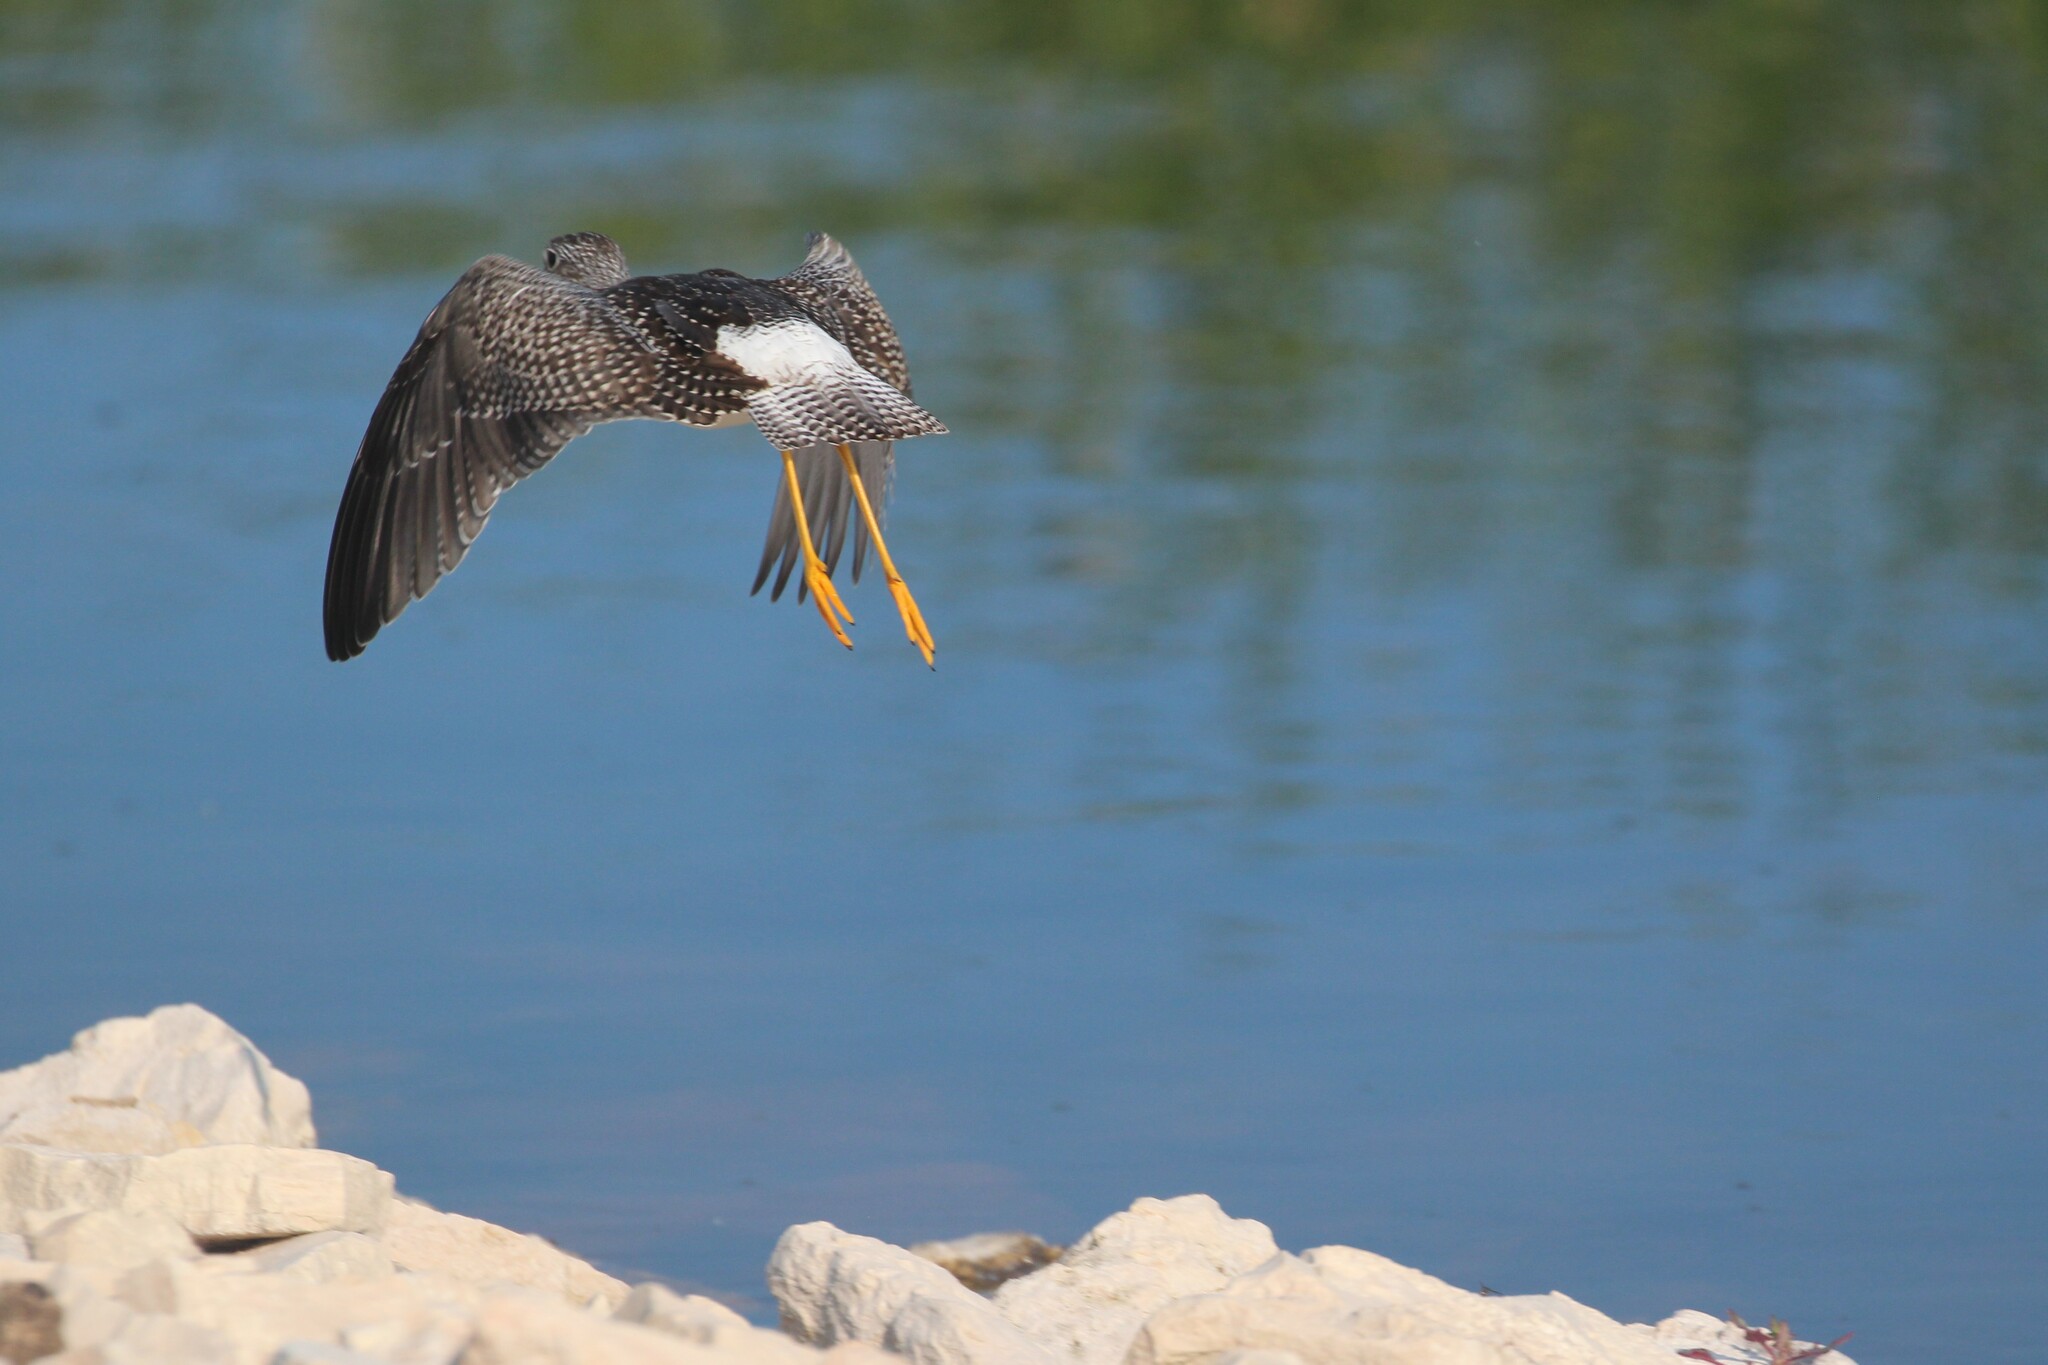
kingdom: Animalia
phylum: Chordata
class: Aves
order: Charadriiformes
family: Scolopacidae
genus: Tringa
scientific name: Tringa melanoleuca
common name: Greater yellowlegs
